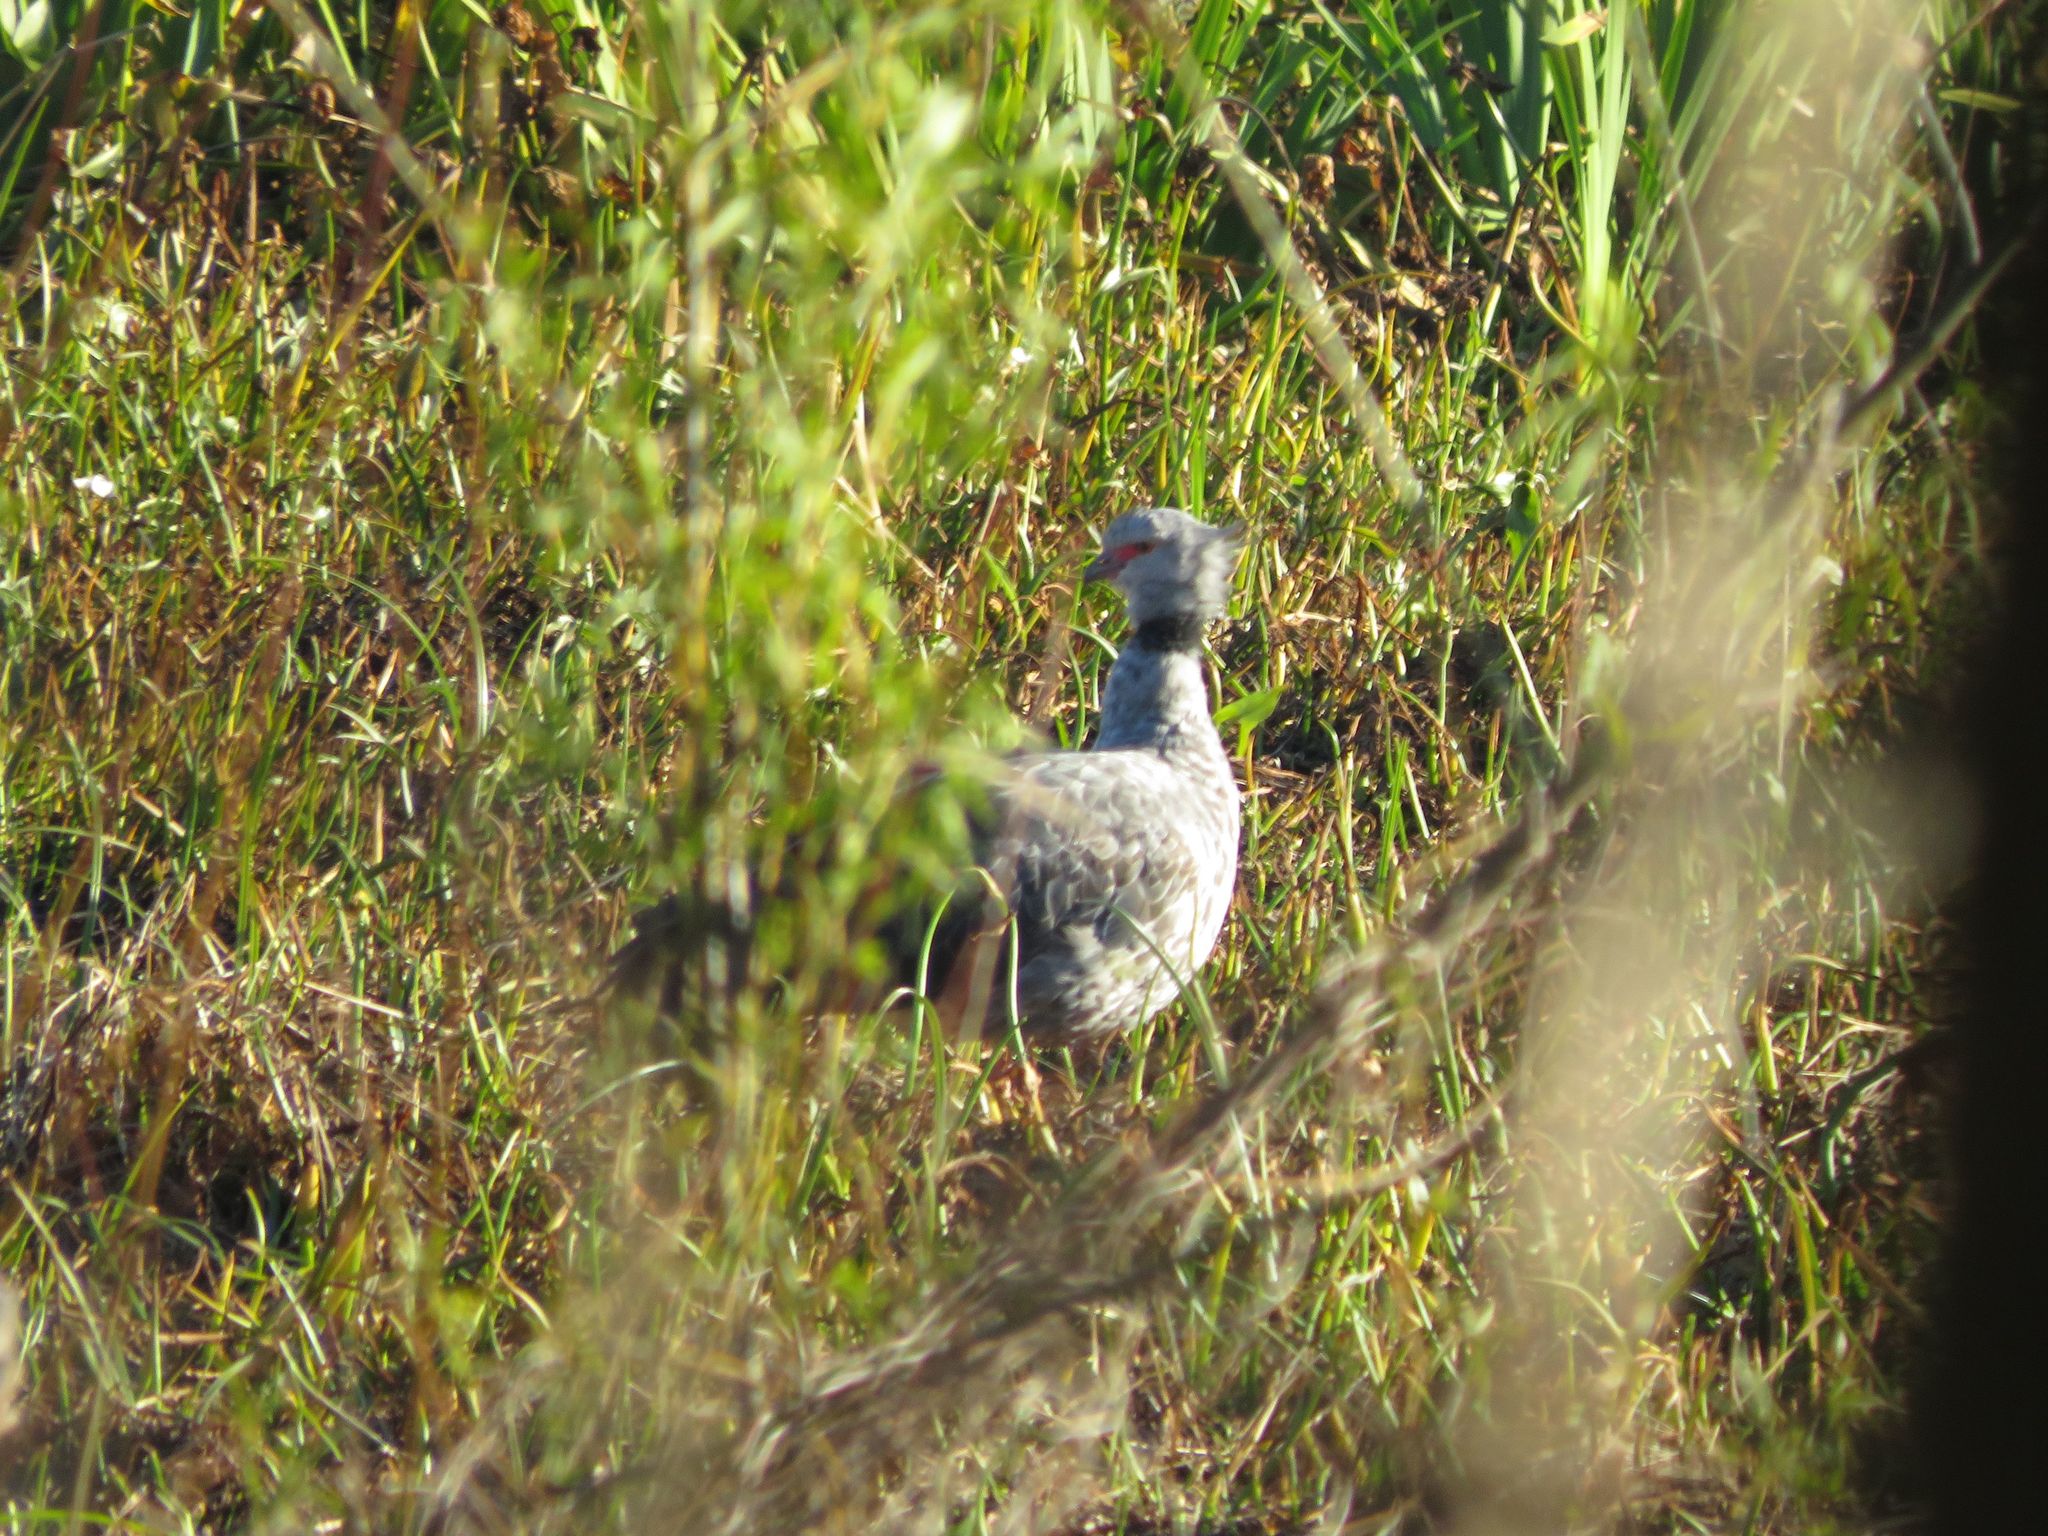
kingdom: Animalia
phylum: Chordata
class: Aves
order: Anseriformes
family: Anhimidae
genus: Chauna
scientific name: Chauna torquata
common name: Southern screamer
